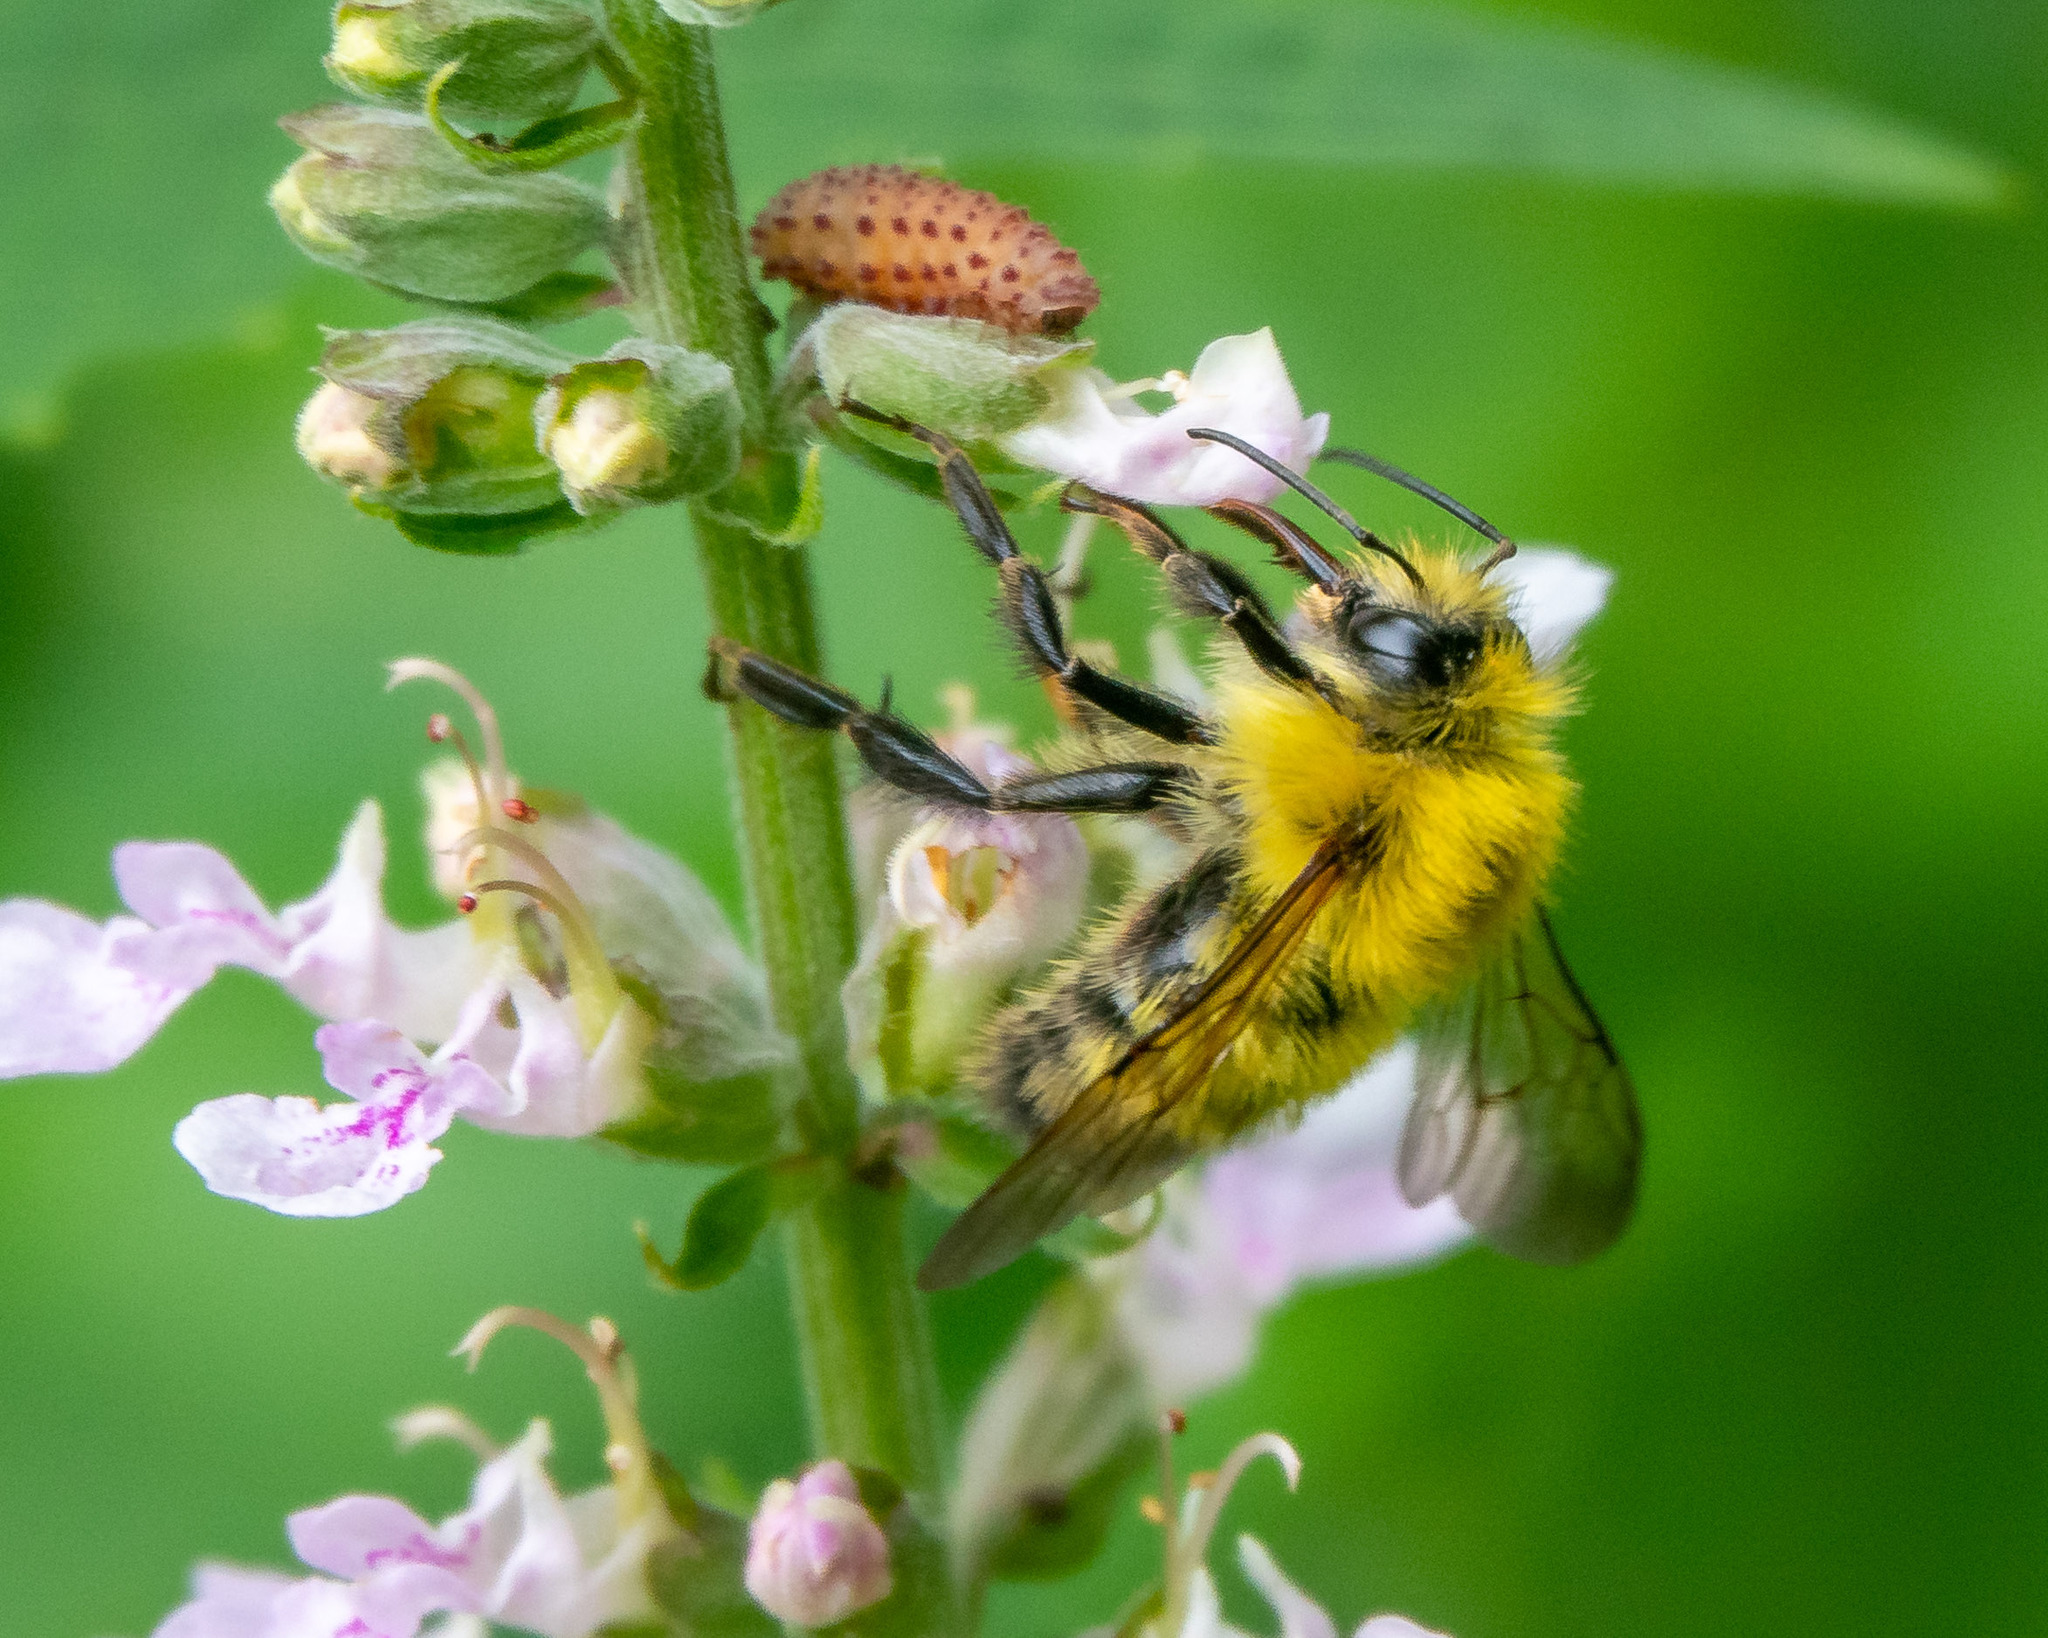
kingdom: Animalia
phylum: Arthropoda
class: Insecta
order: Hymenoptera
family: Apidae
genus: Bombus
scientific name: Bombus perplexus
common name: Confusing bumble bee
